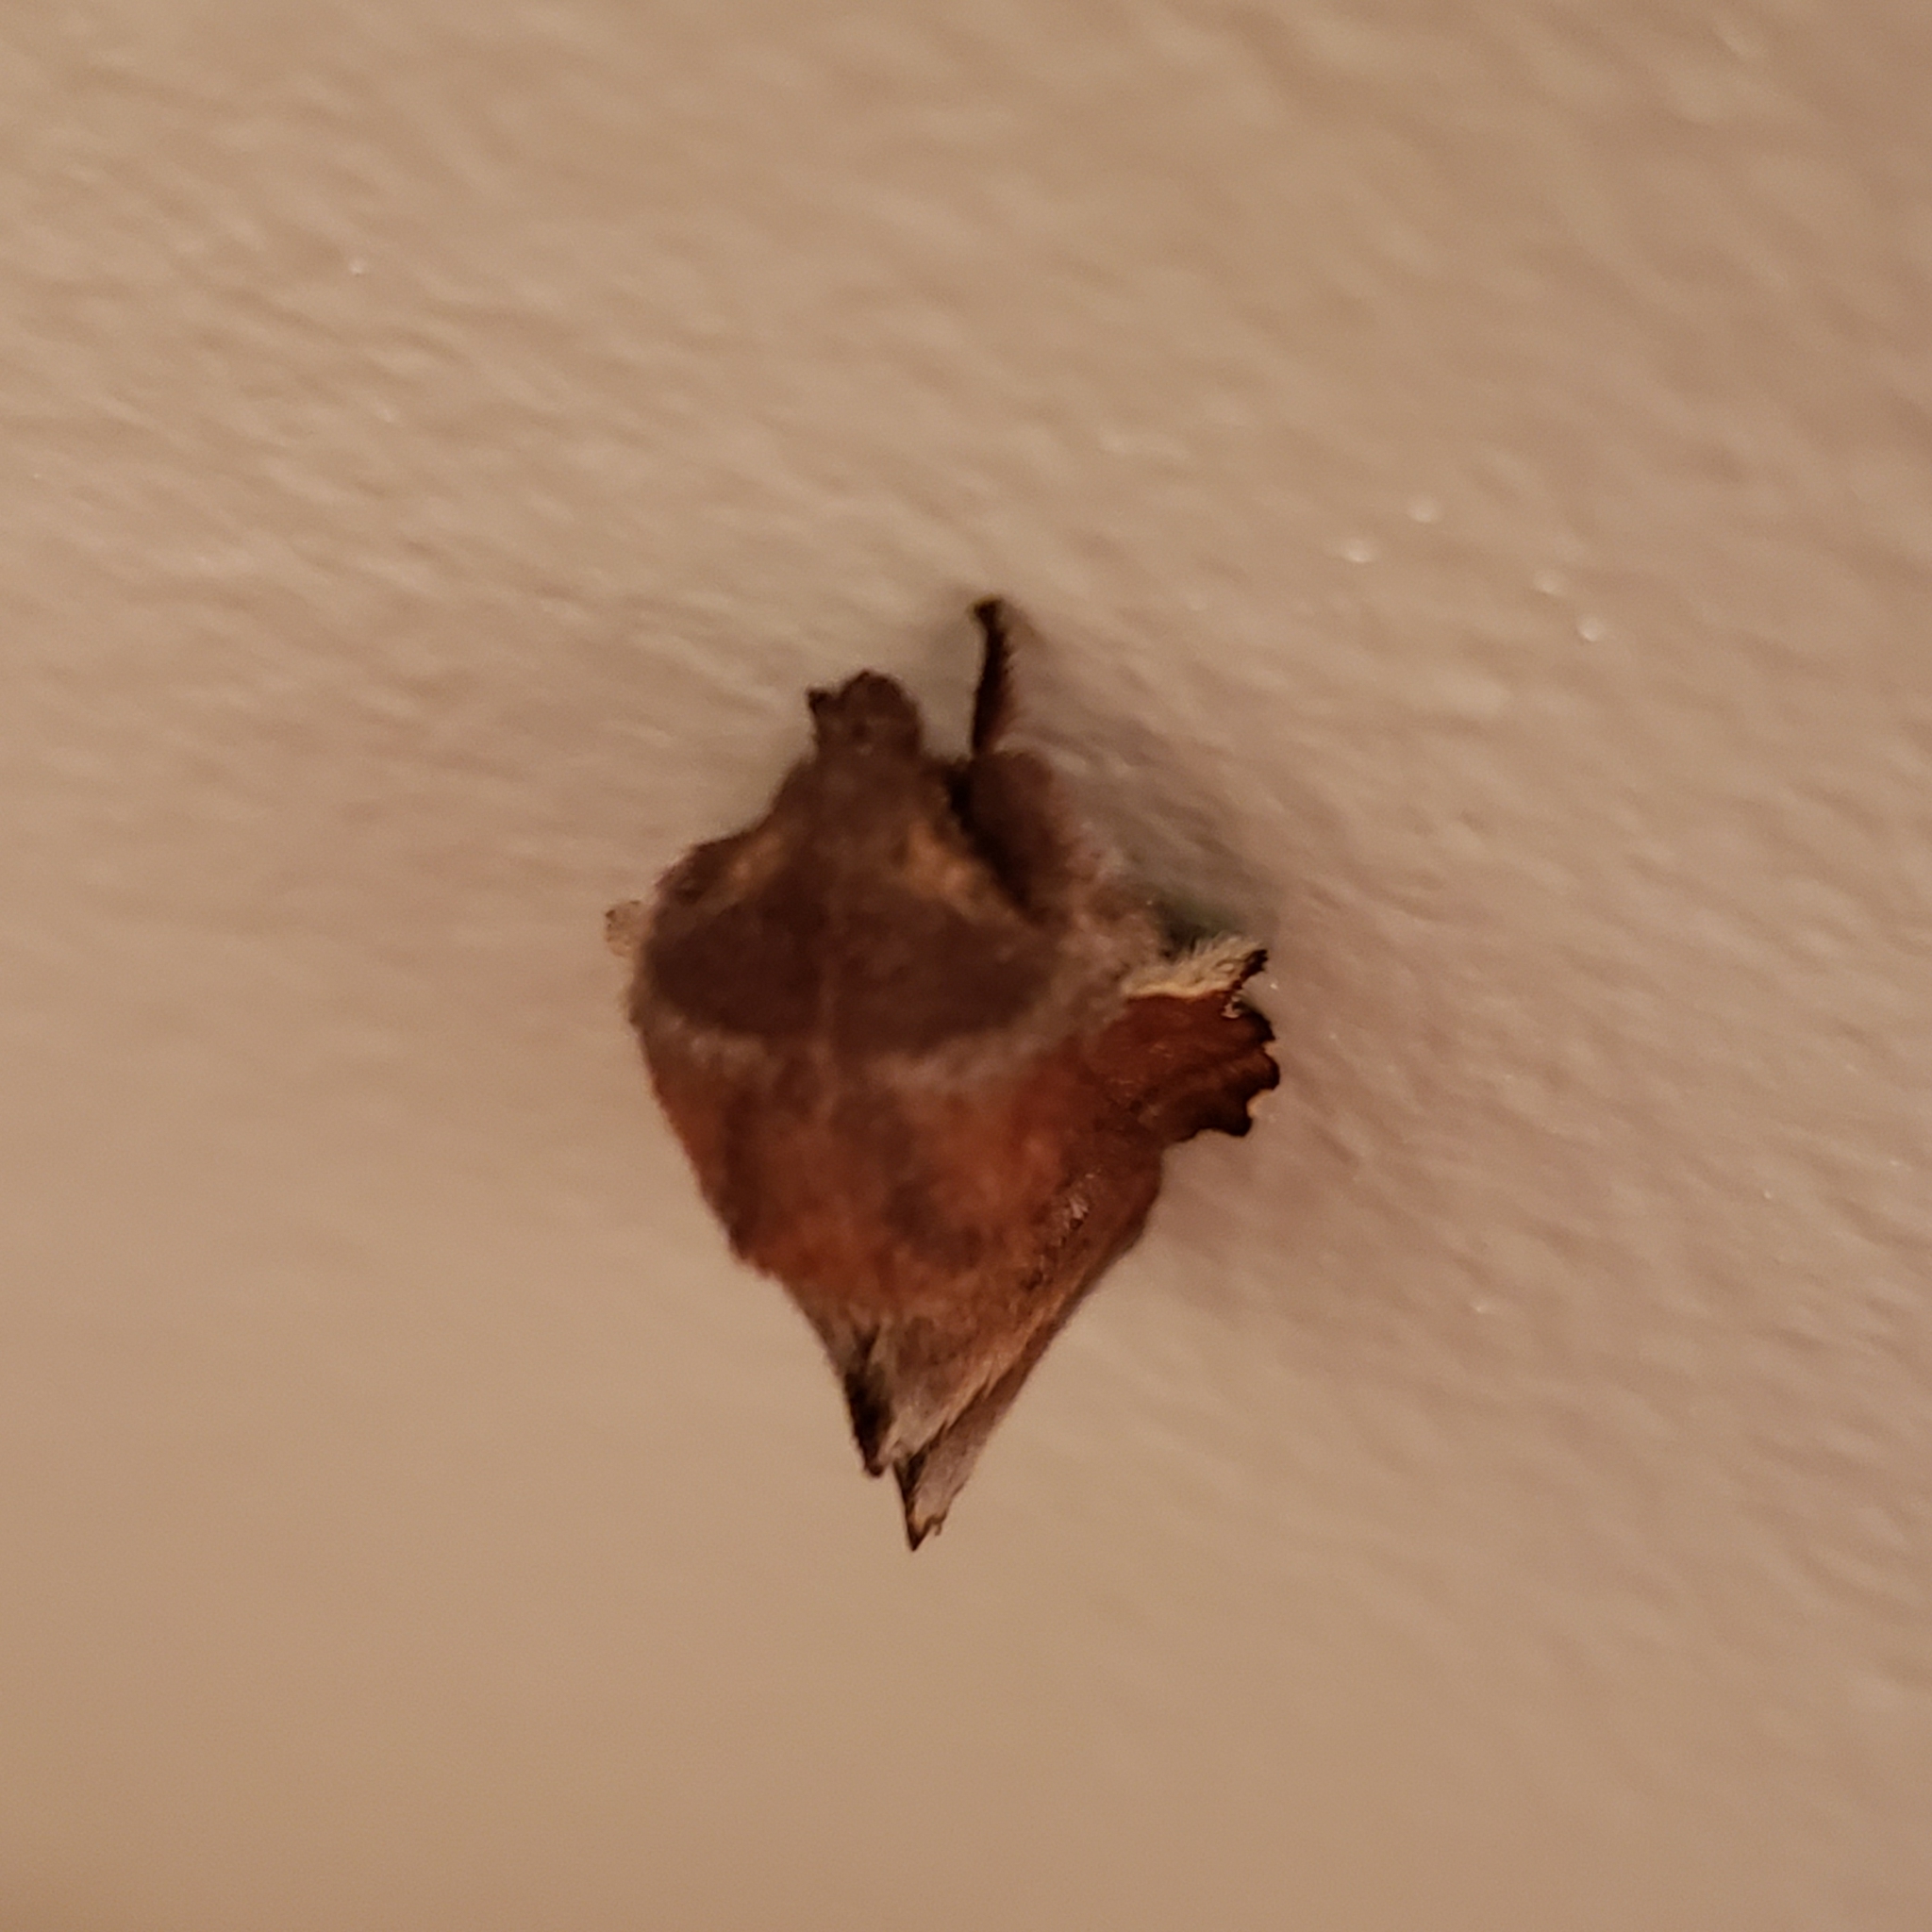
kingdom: Animalia
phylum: Arthropoda
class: Insecta
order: Lepidoptera
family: Lasiocampidae
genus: Phyllodesma
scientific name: Phyllodesma americana
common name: American lappet moth
